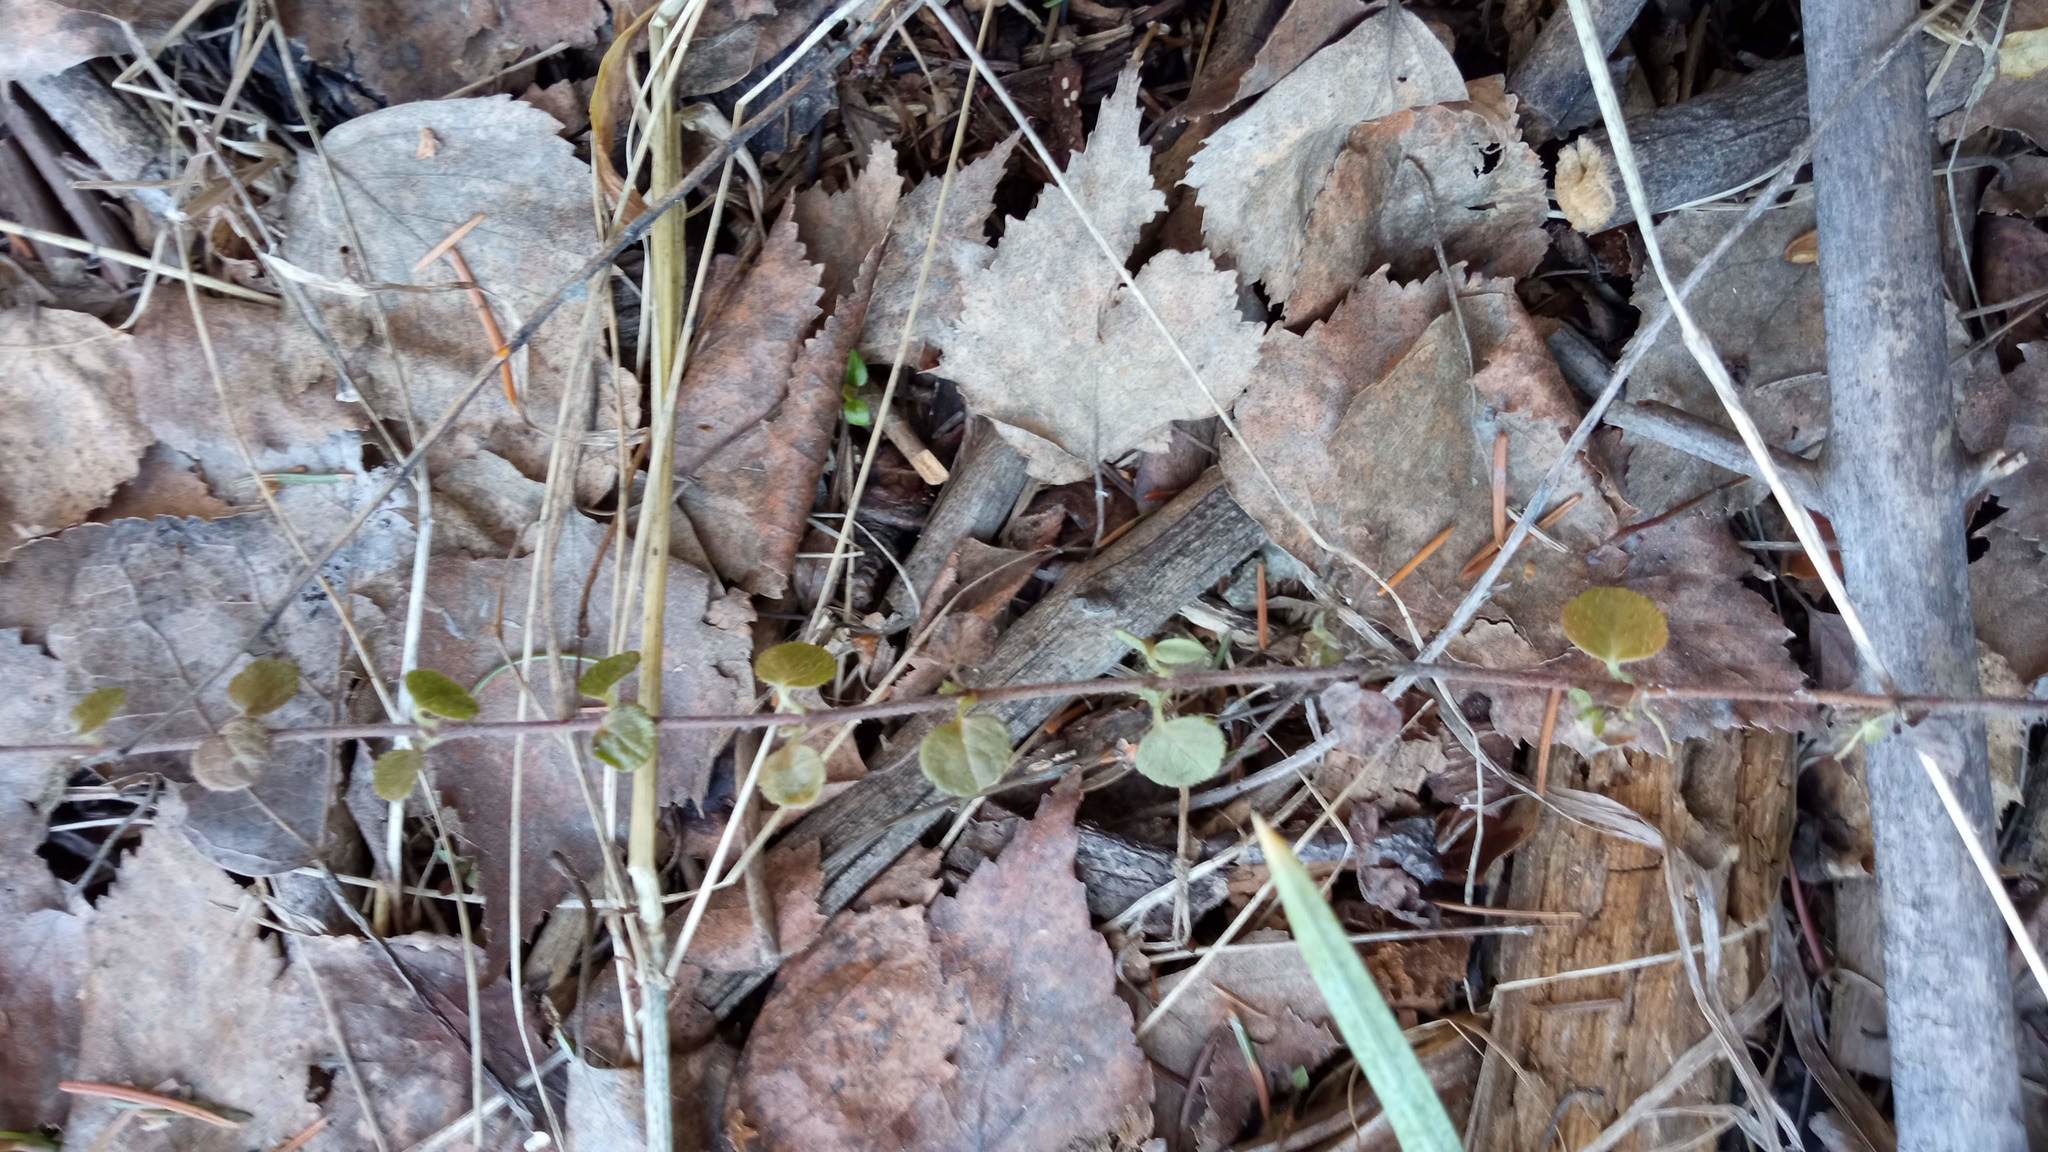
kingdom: Plantae
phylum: Tracheophyta
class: Magnoliopsida
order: Dipsacales
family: Caprifoliaceae
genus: Linnaea
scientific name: Linnaea borealis
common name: Twinflower
